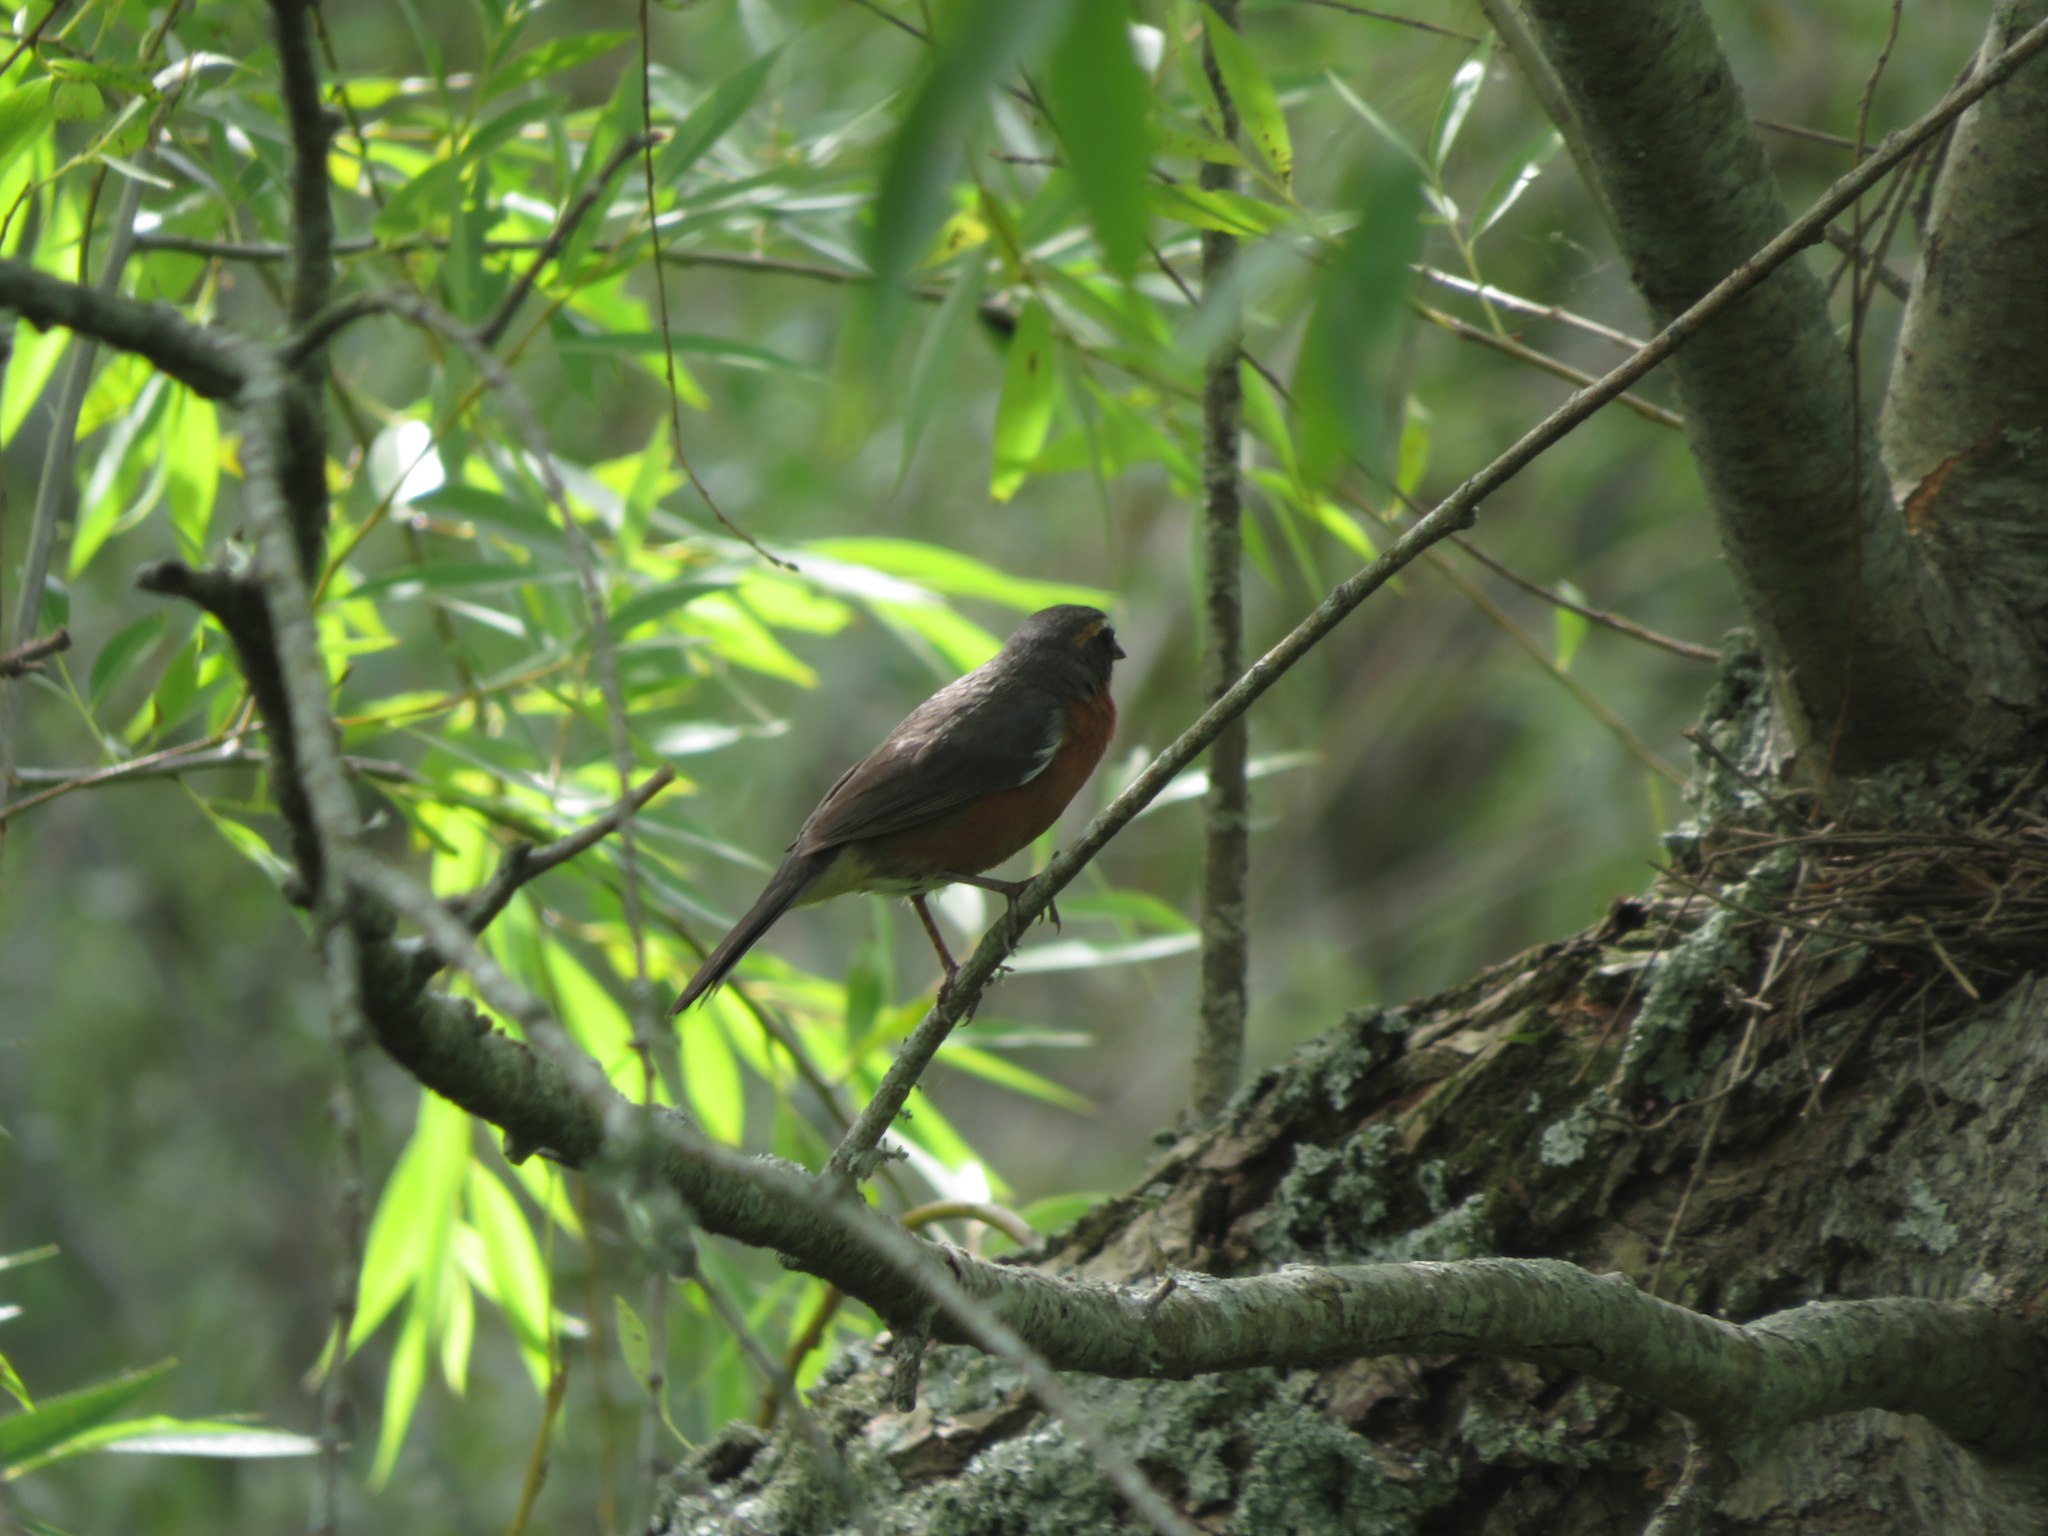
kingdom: Animalia
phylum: Chordata
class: Aves
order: Passeriformes
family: Thraupidae
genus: Poospiza
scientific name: Poospiza nigrorufa
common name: Black-and-rufous warbling finch
